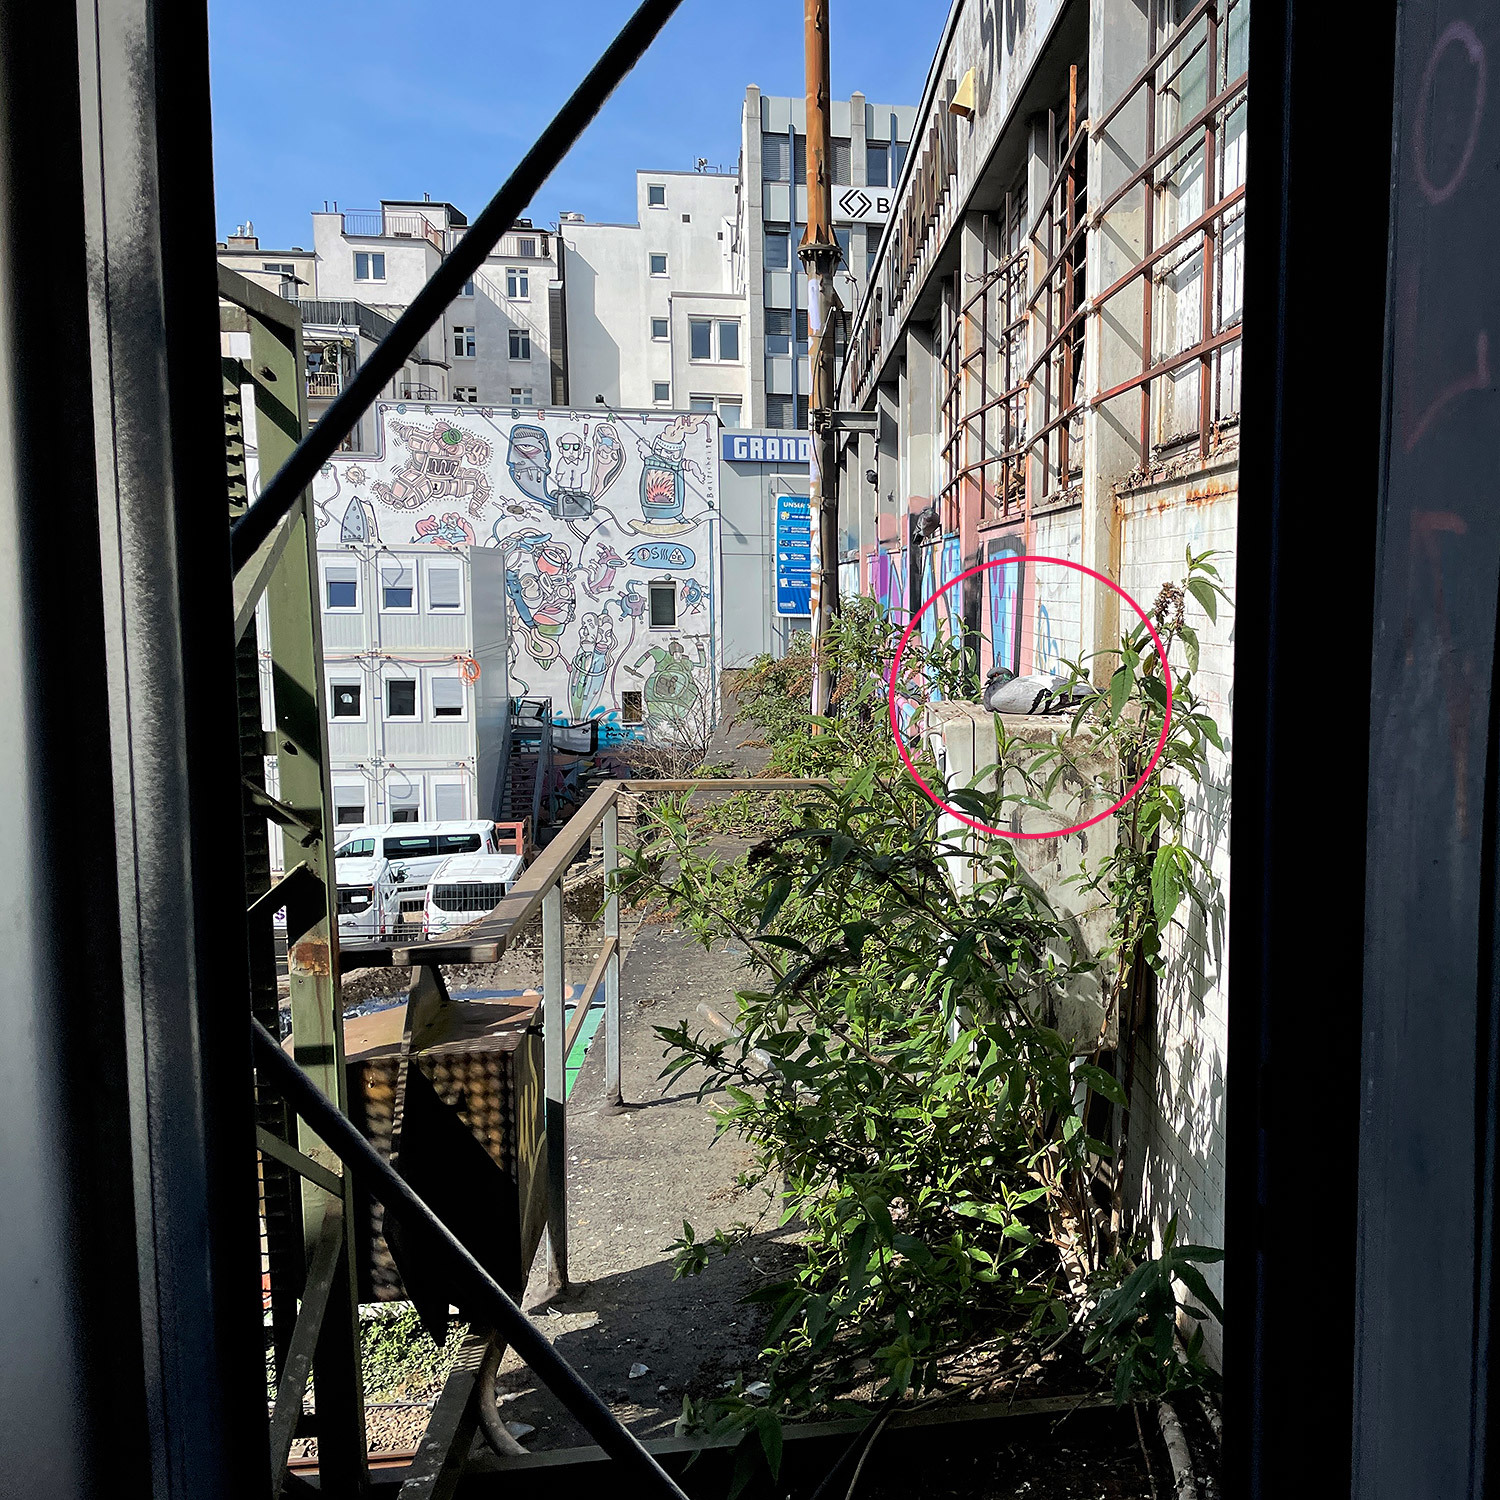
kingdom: Animalia
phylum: Chordata
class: Aves
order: Columbiformes
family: Columbidae
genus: Columba
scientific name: Columba livia
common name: Rock pigeon
